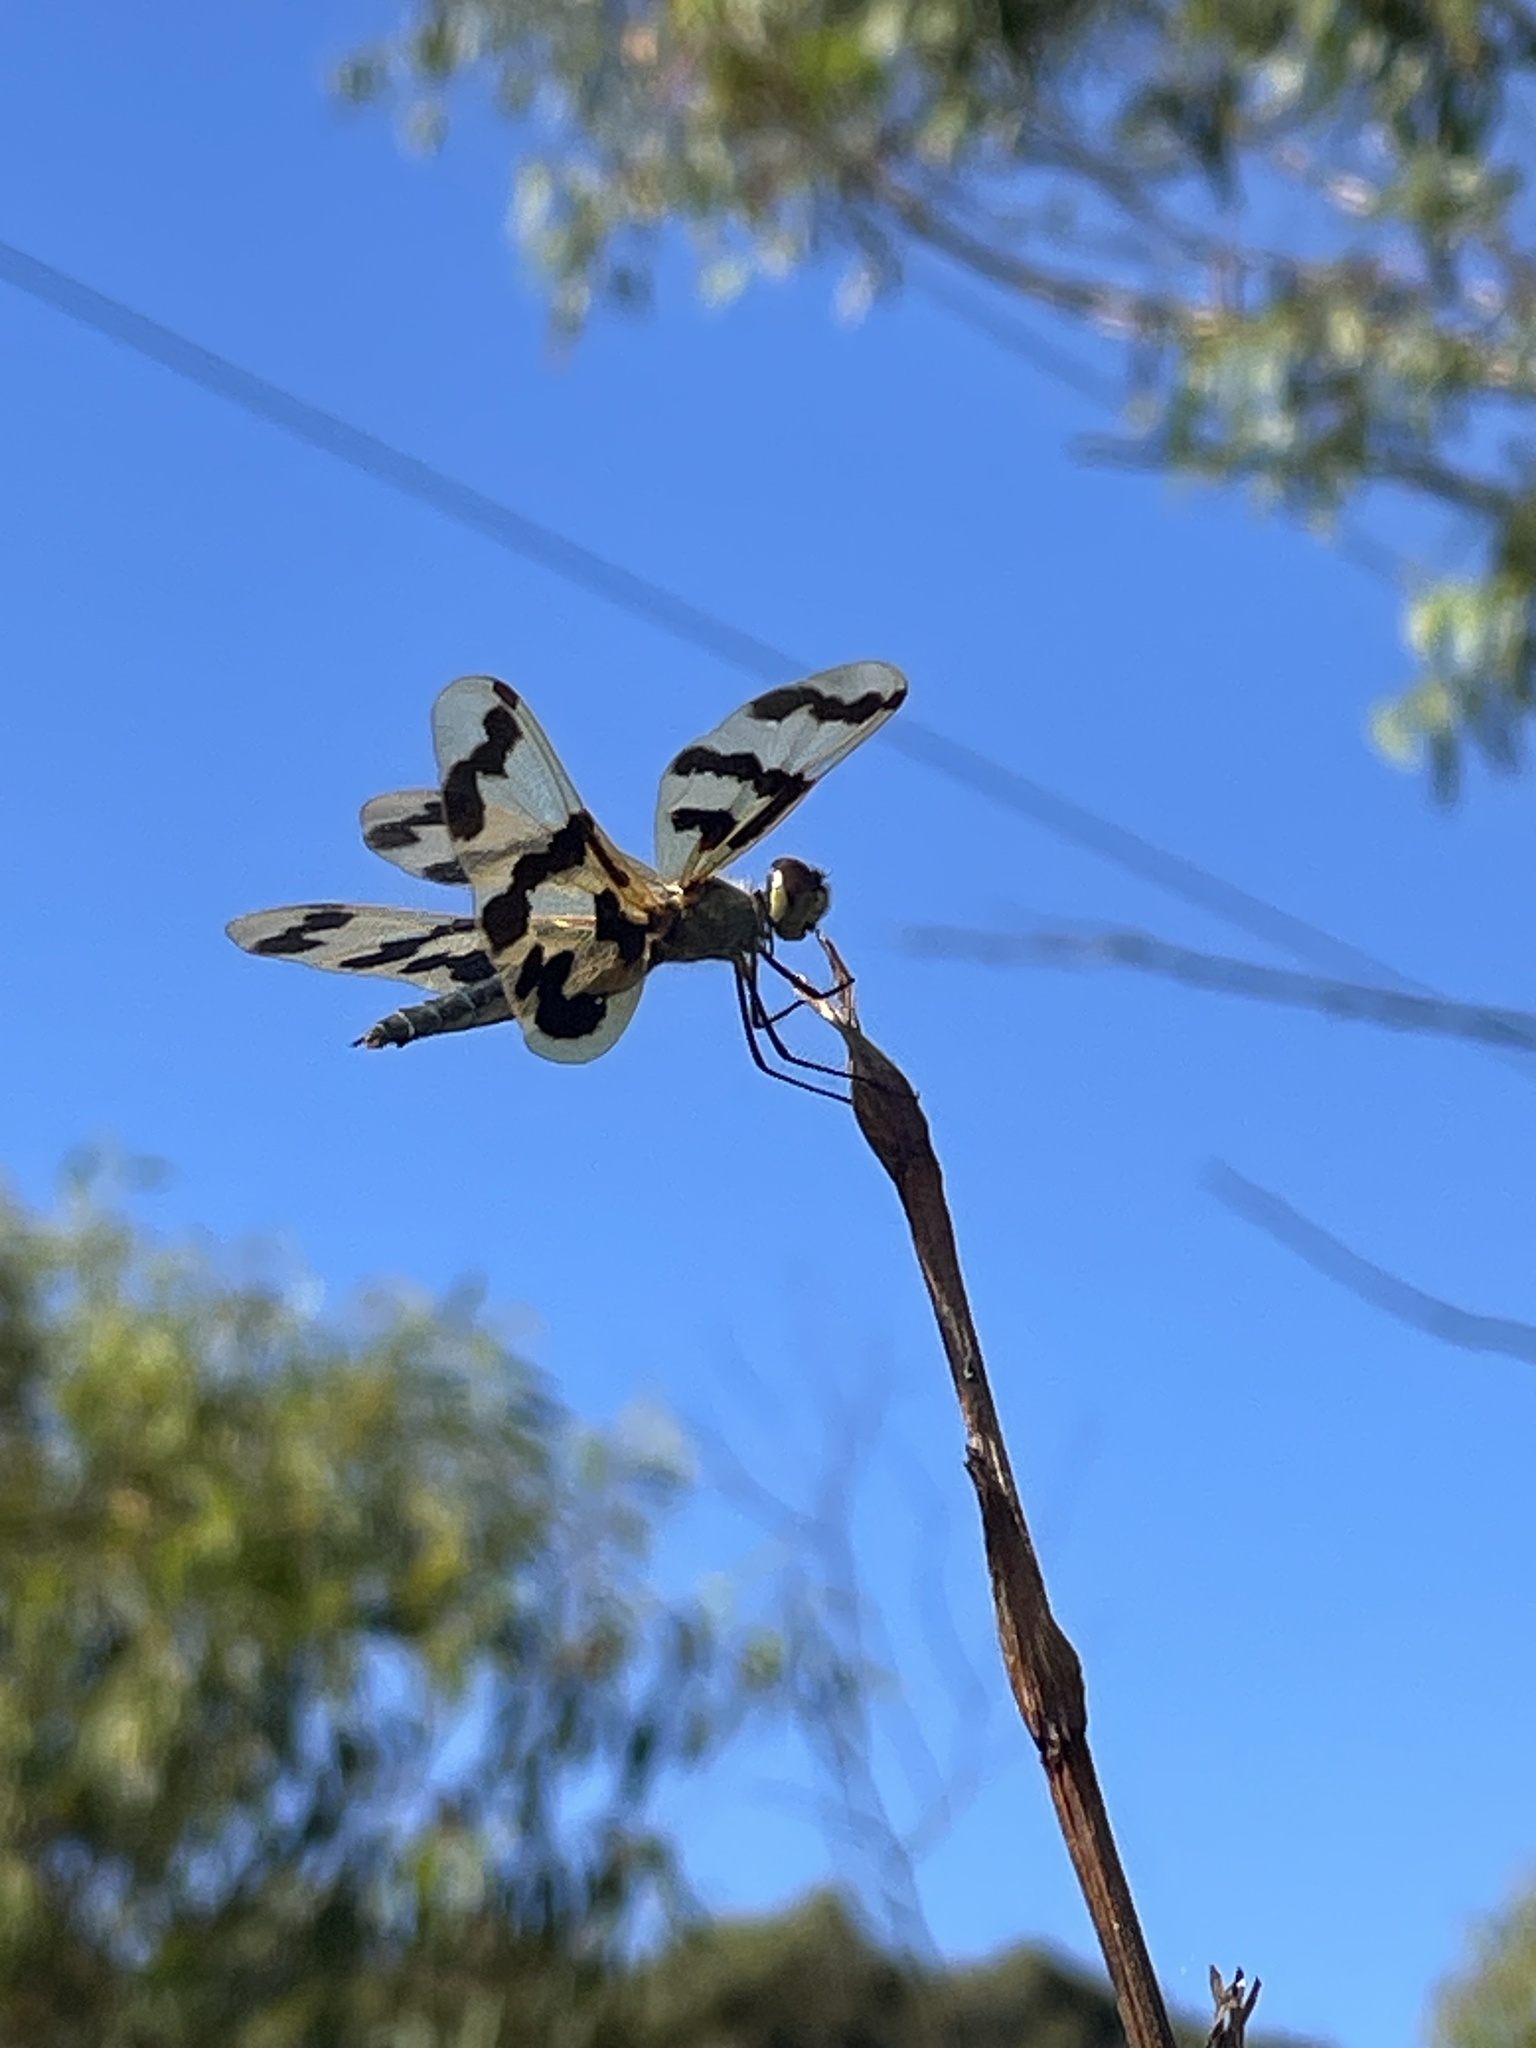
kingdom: Animalia
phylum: Arthropoda
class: Insecta
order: Odonata
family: Libellulidae
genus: Rhyothemis
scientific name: Rhyothemis graphiptera
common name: Graphic flutterer
